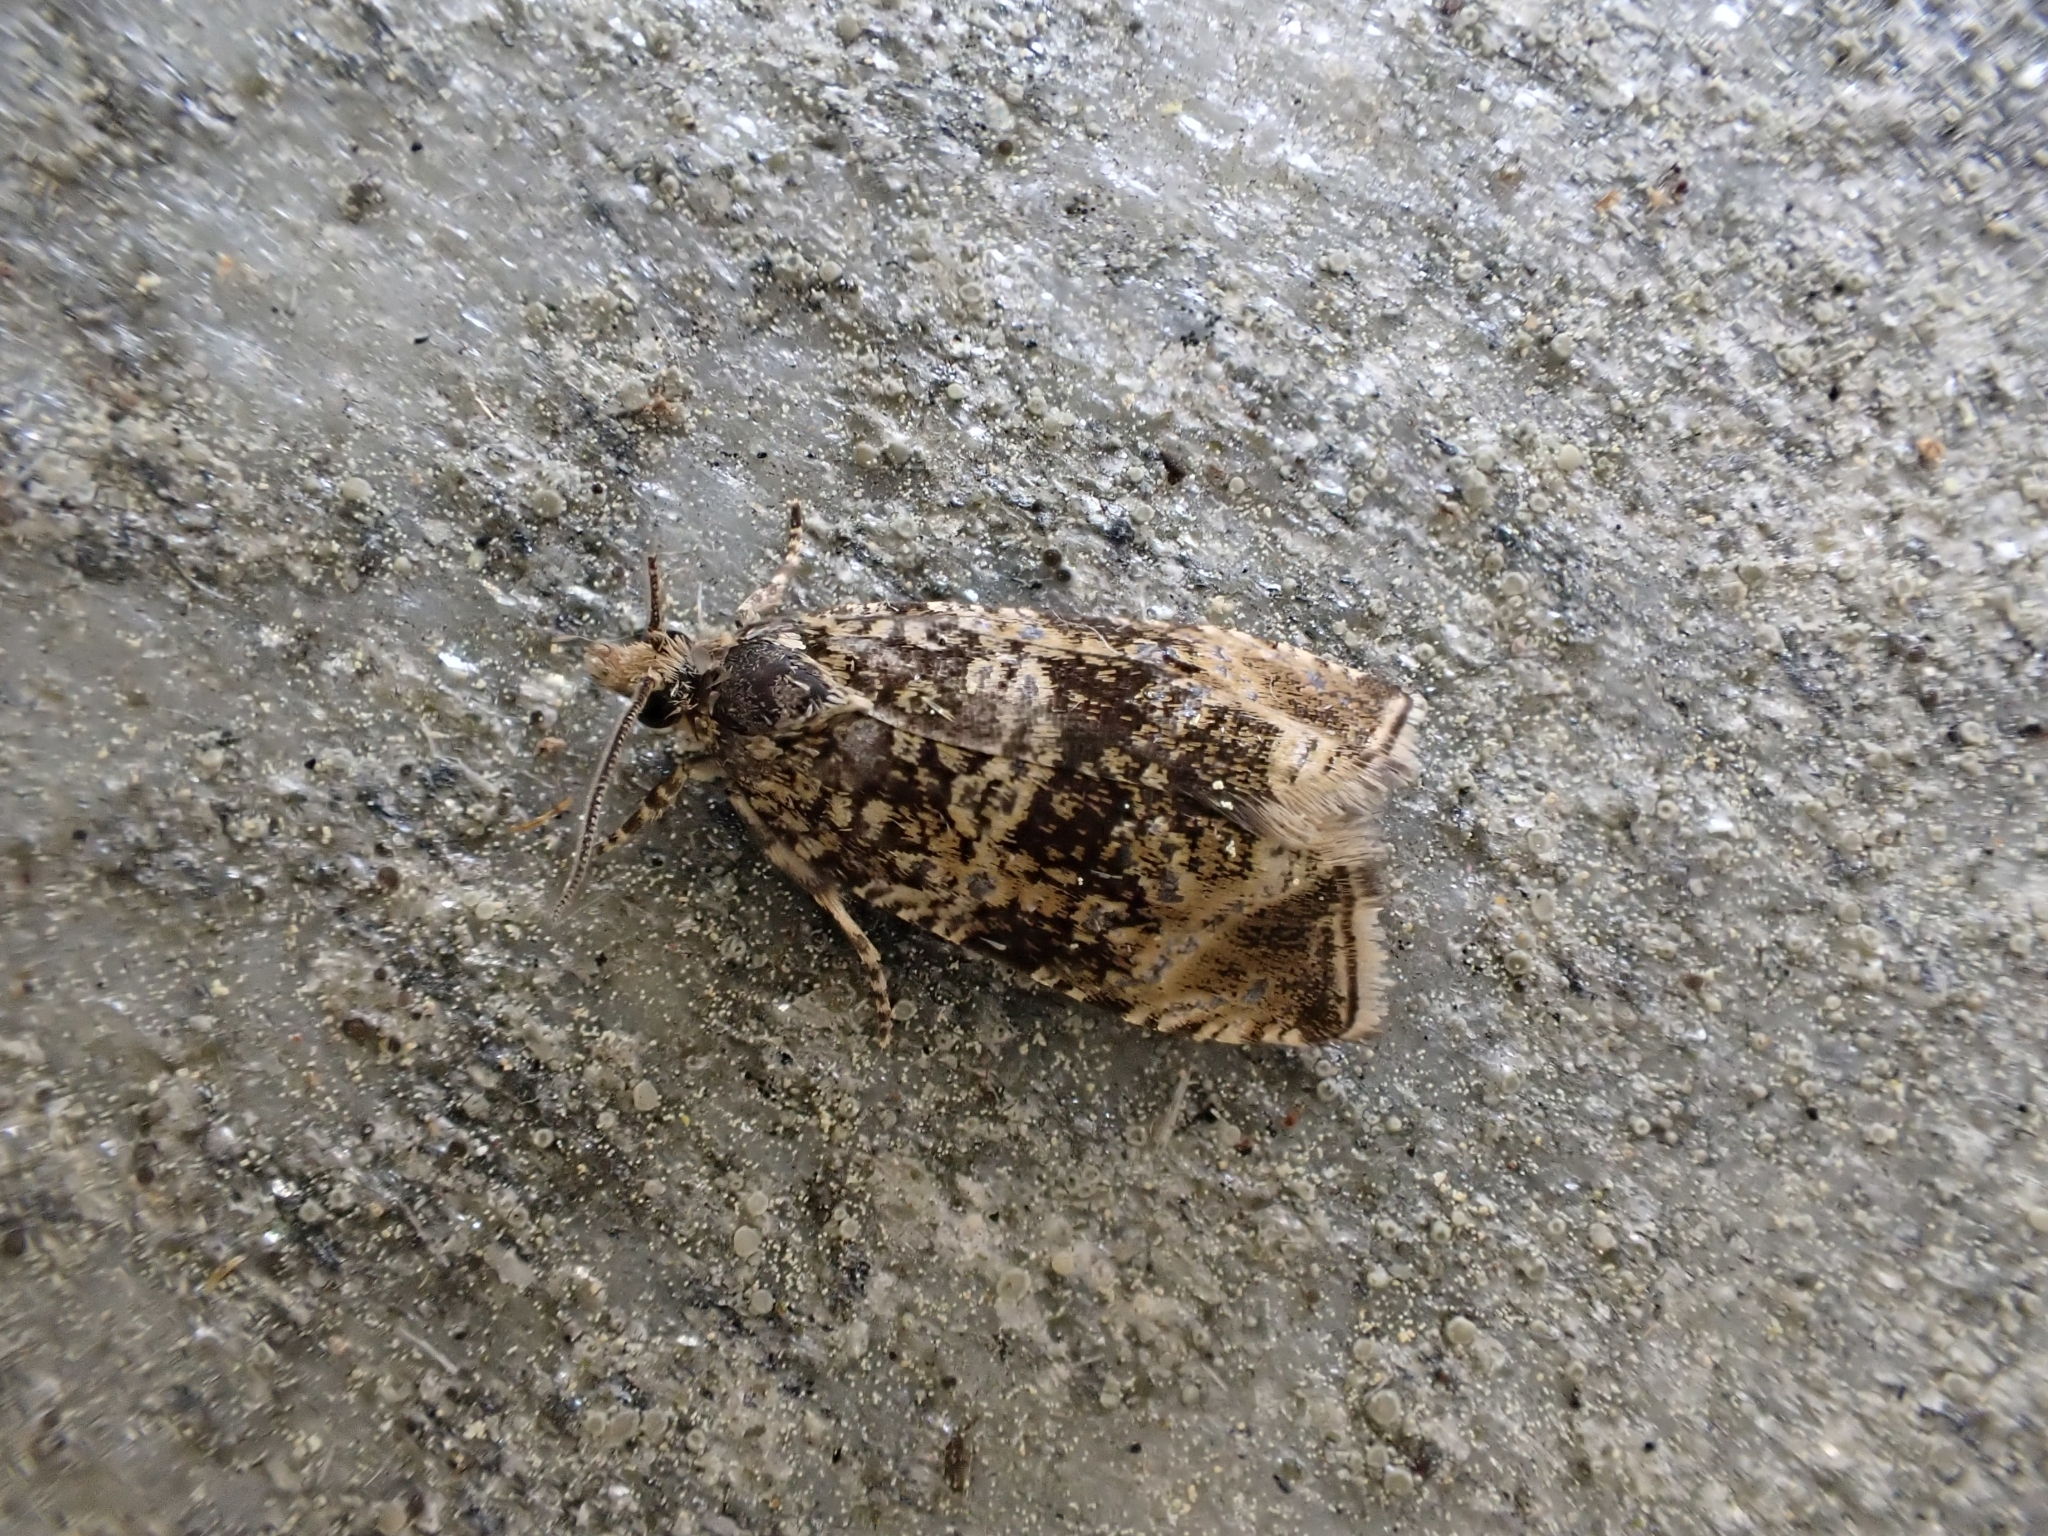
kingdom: Animalia
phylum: Arthropoda
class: Insecta
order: Lepidoptera
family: Tortricidae
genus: Syricoris
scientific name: Syricoris lacunana
